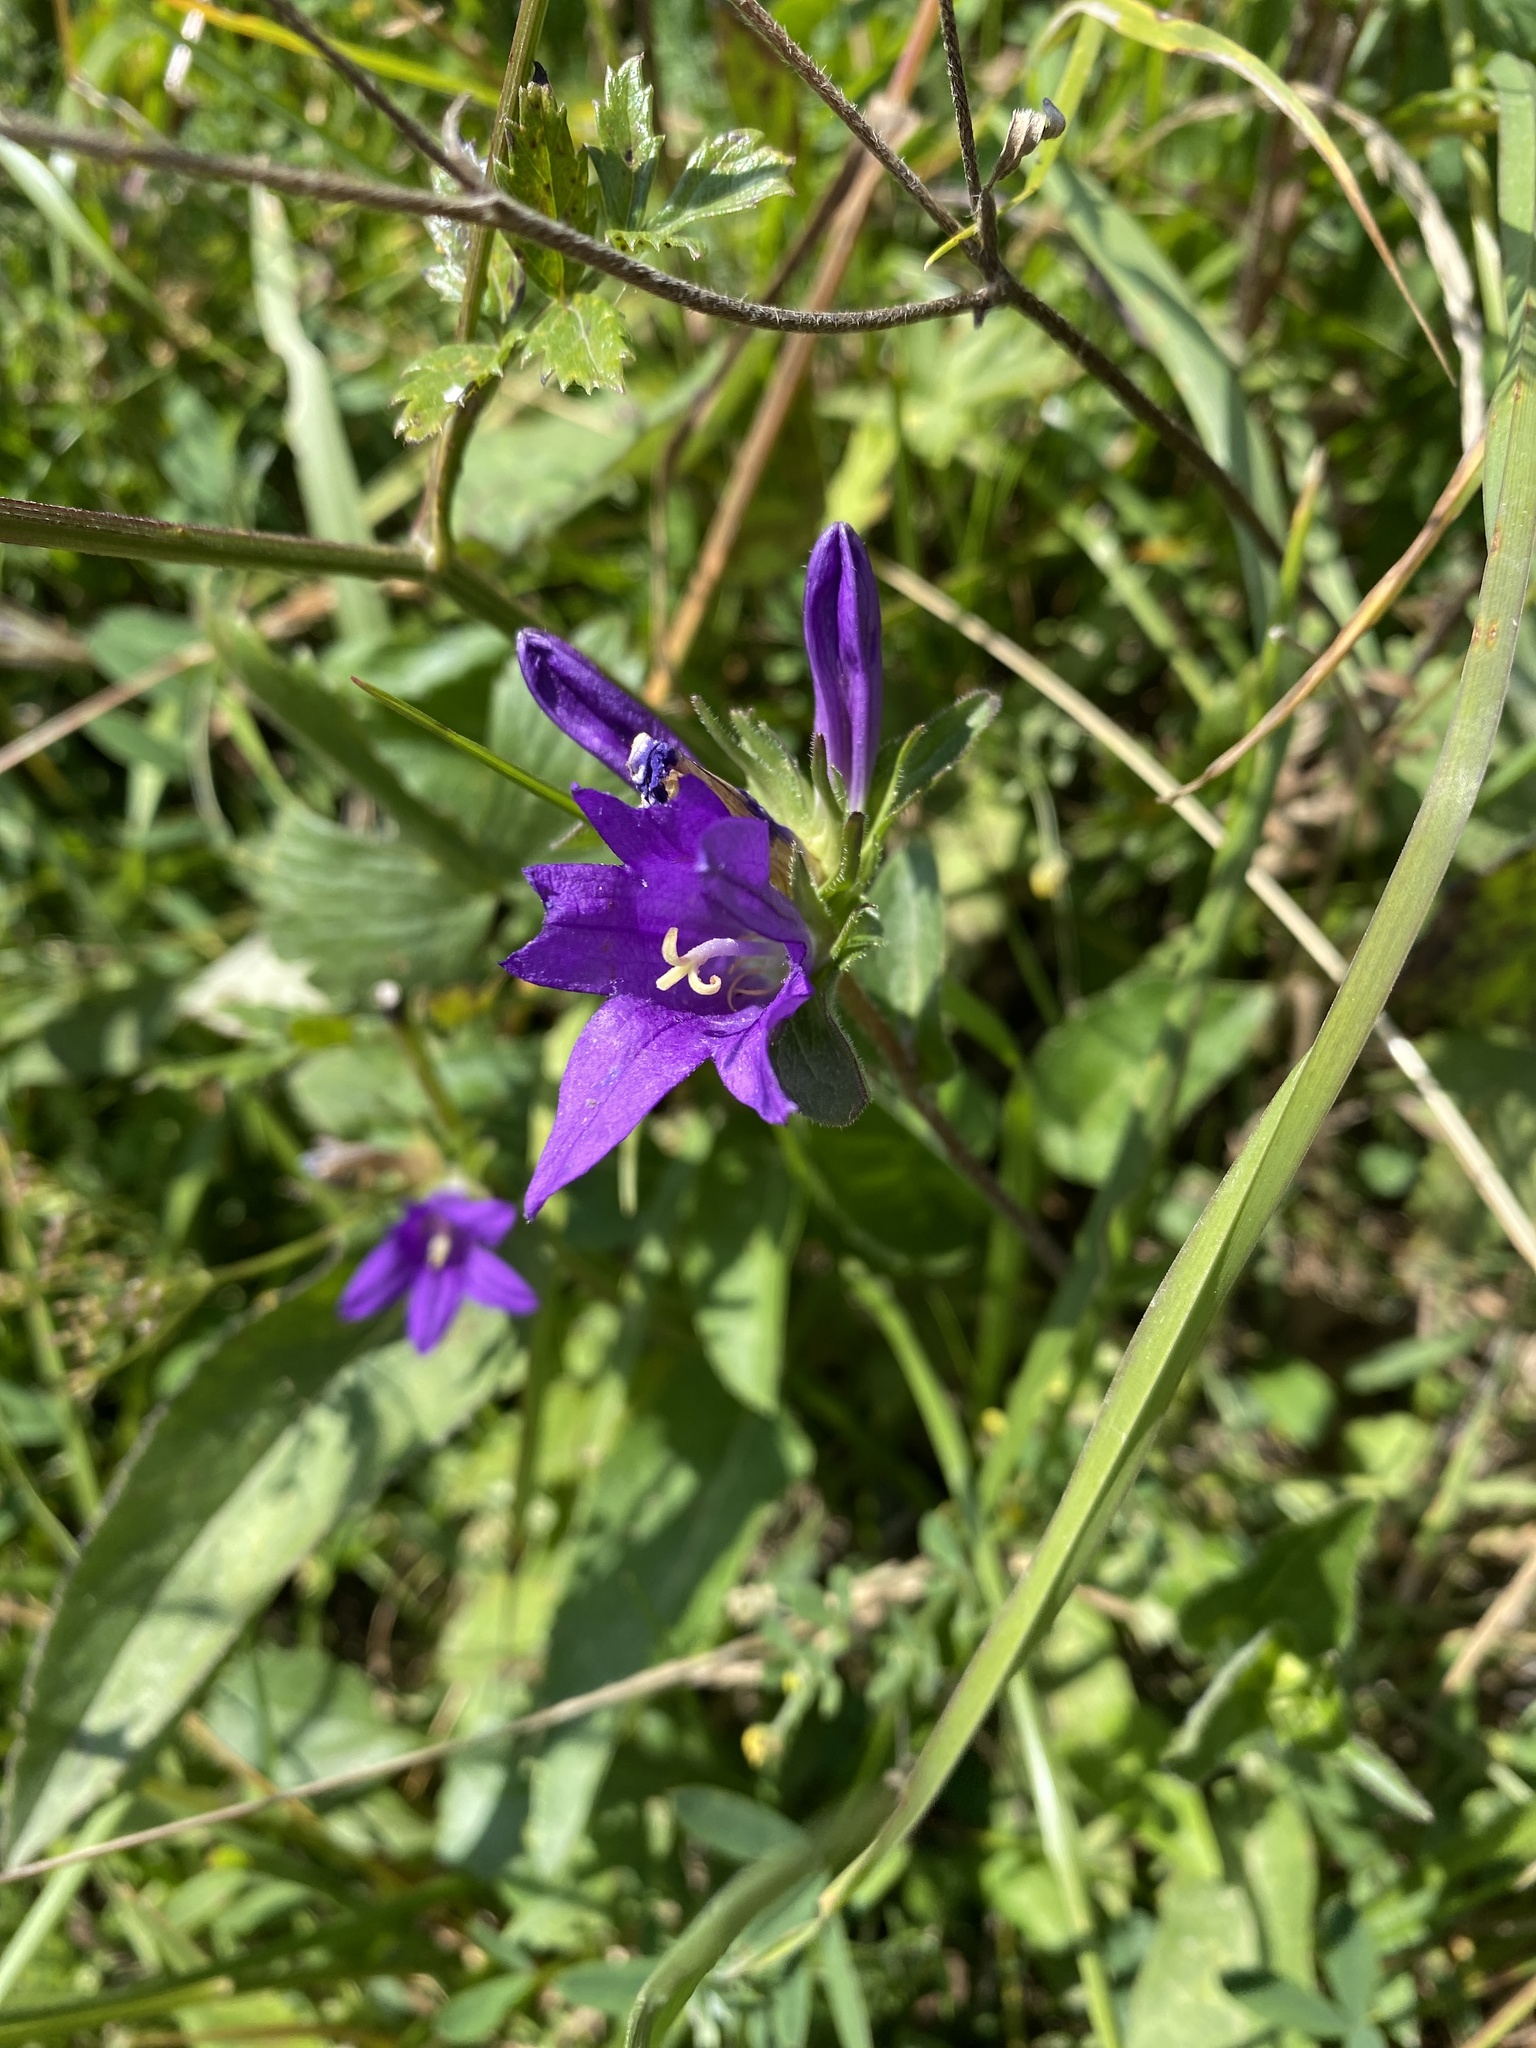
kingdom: Plantae
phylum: Tracheophyta
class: Magnoliopsida
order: Asterales
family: Campanulaceae
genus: Campanula
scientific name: Campanula glomerata
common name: Clustered bellflower
